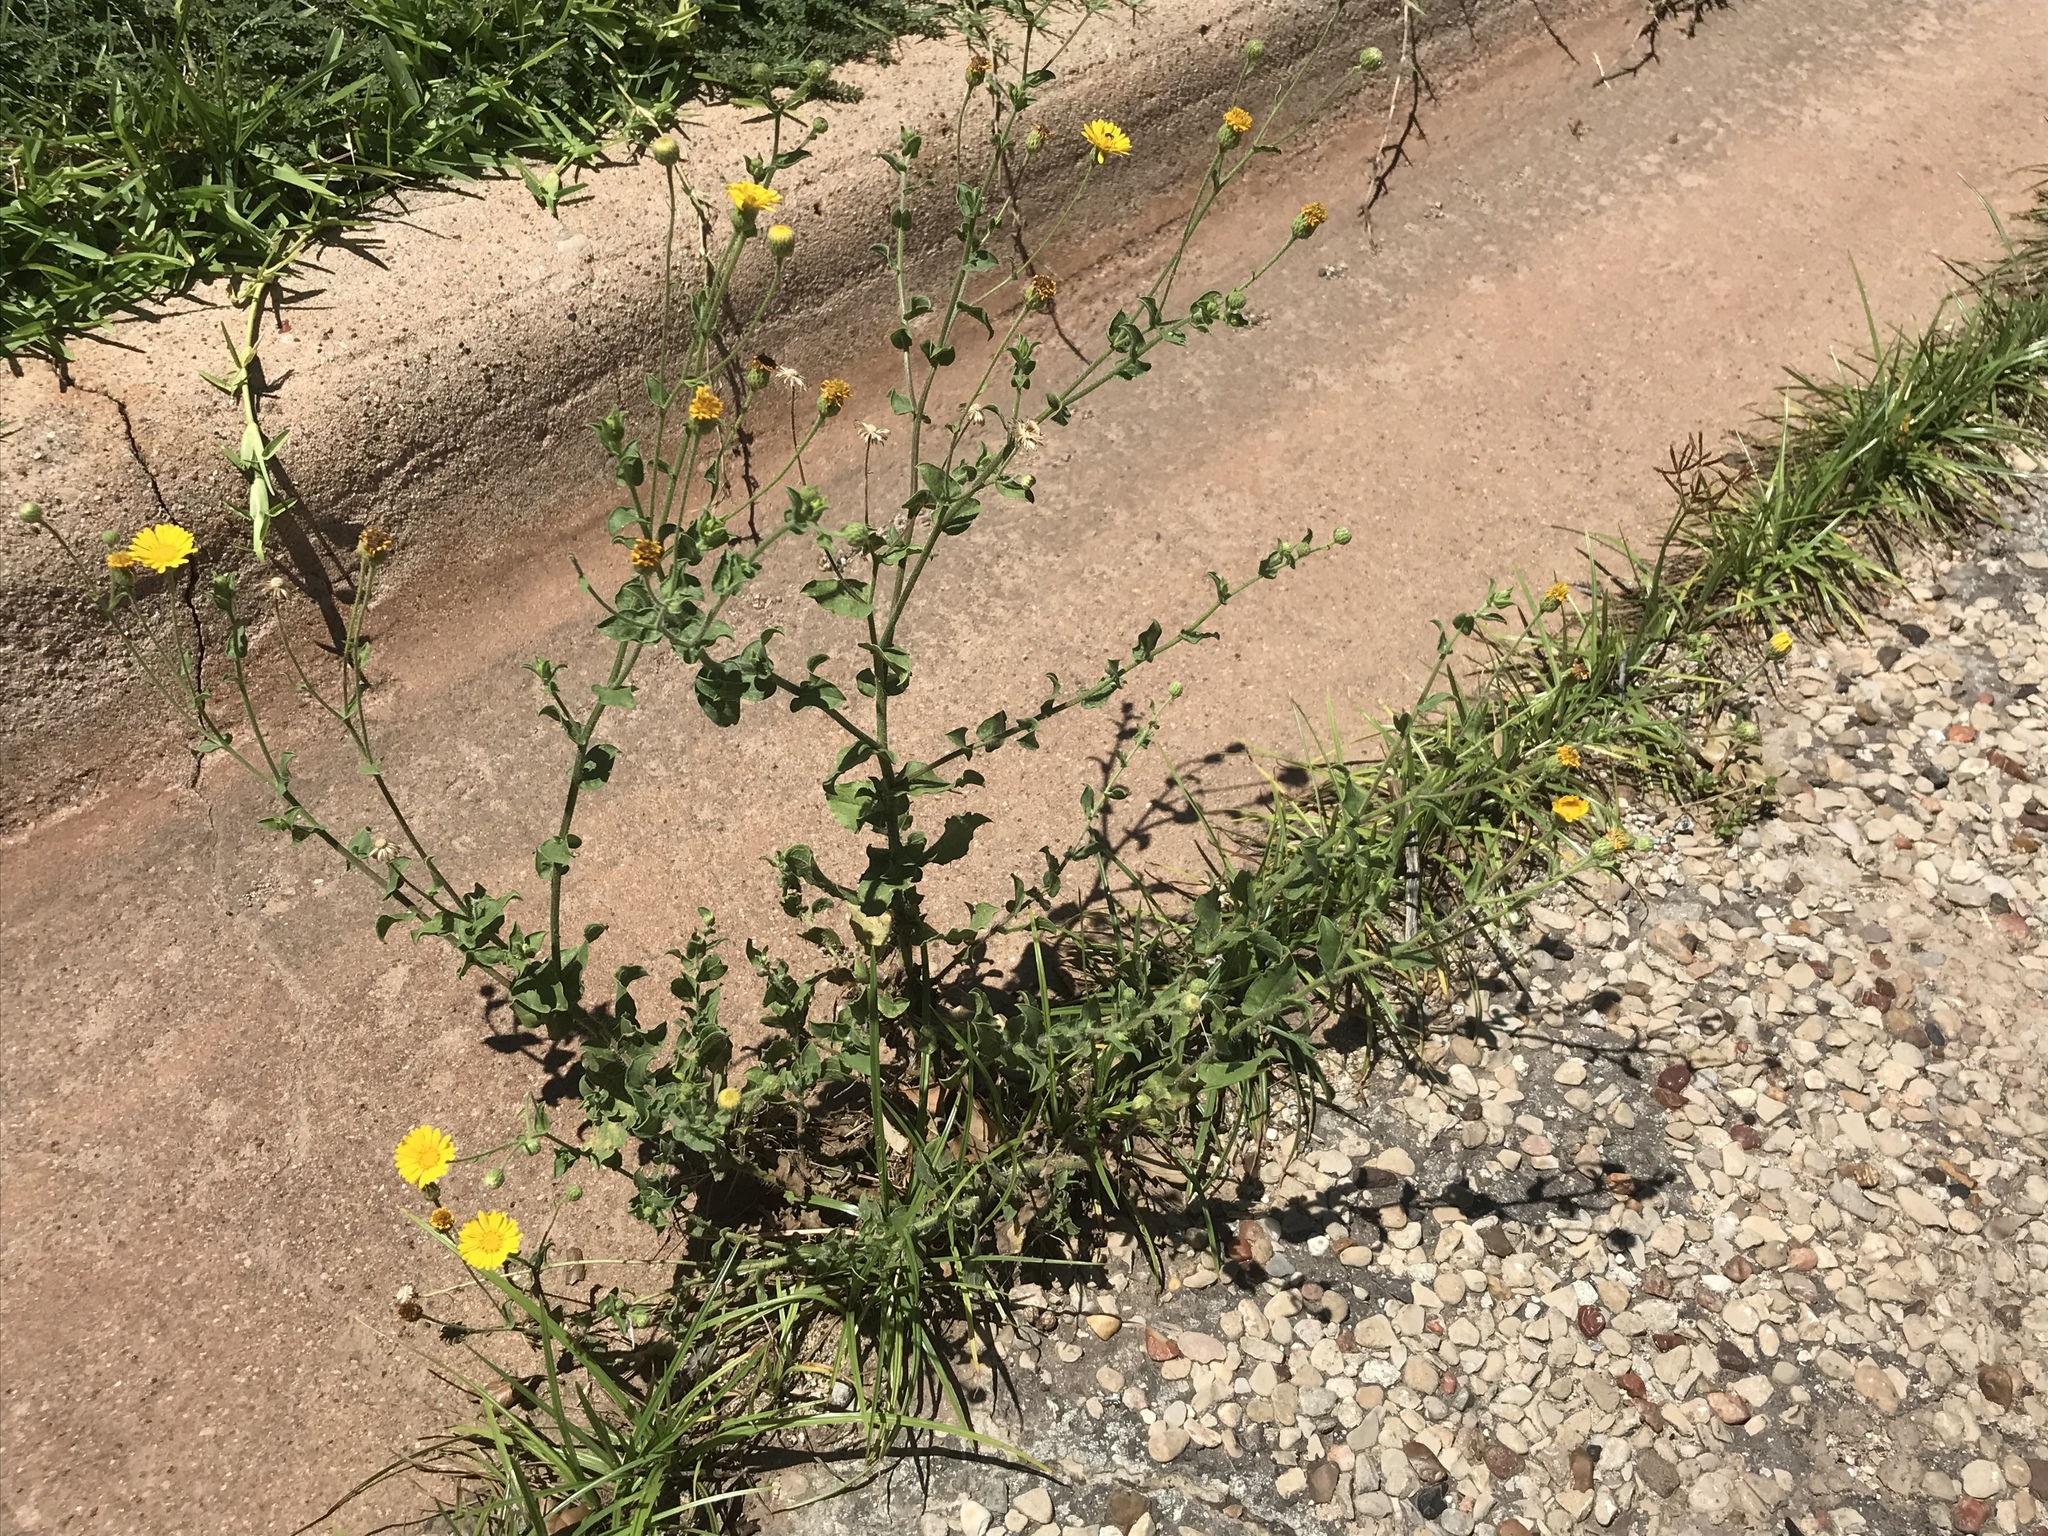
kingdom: Plantae
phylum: Tracheophyta
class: Magnoliopsida
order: Asterales
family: Asteraceae
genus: Heterotheca
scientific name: Heterotheca subaxillaris
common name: Camphorweed
